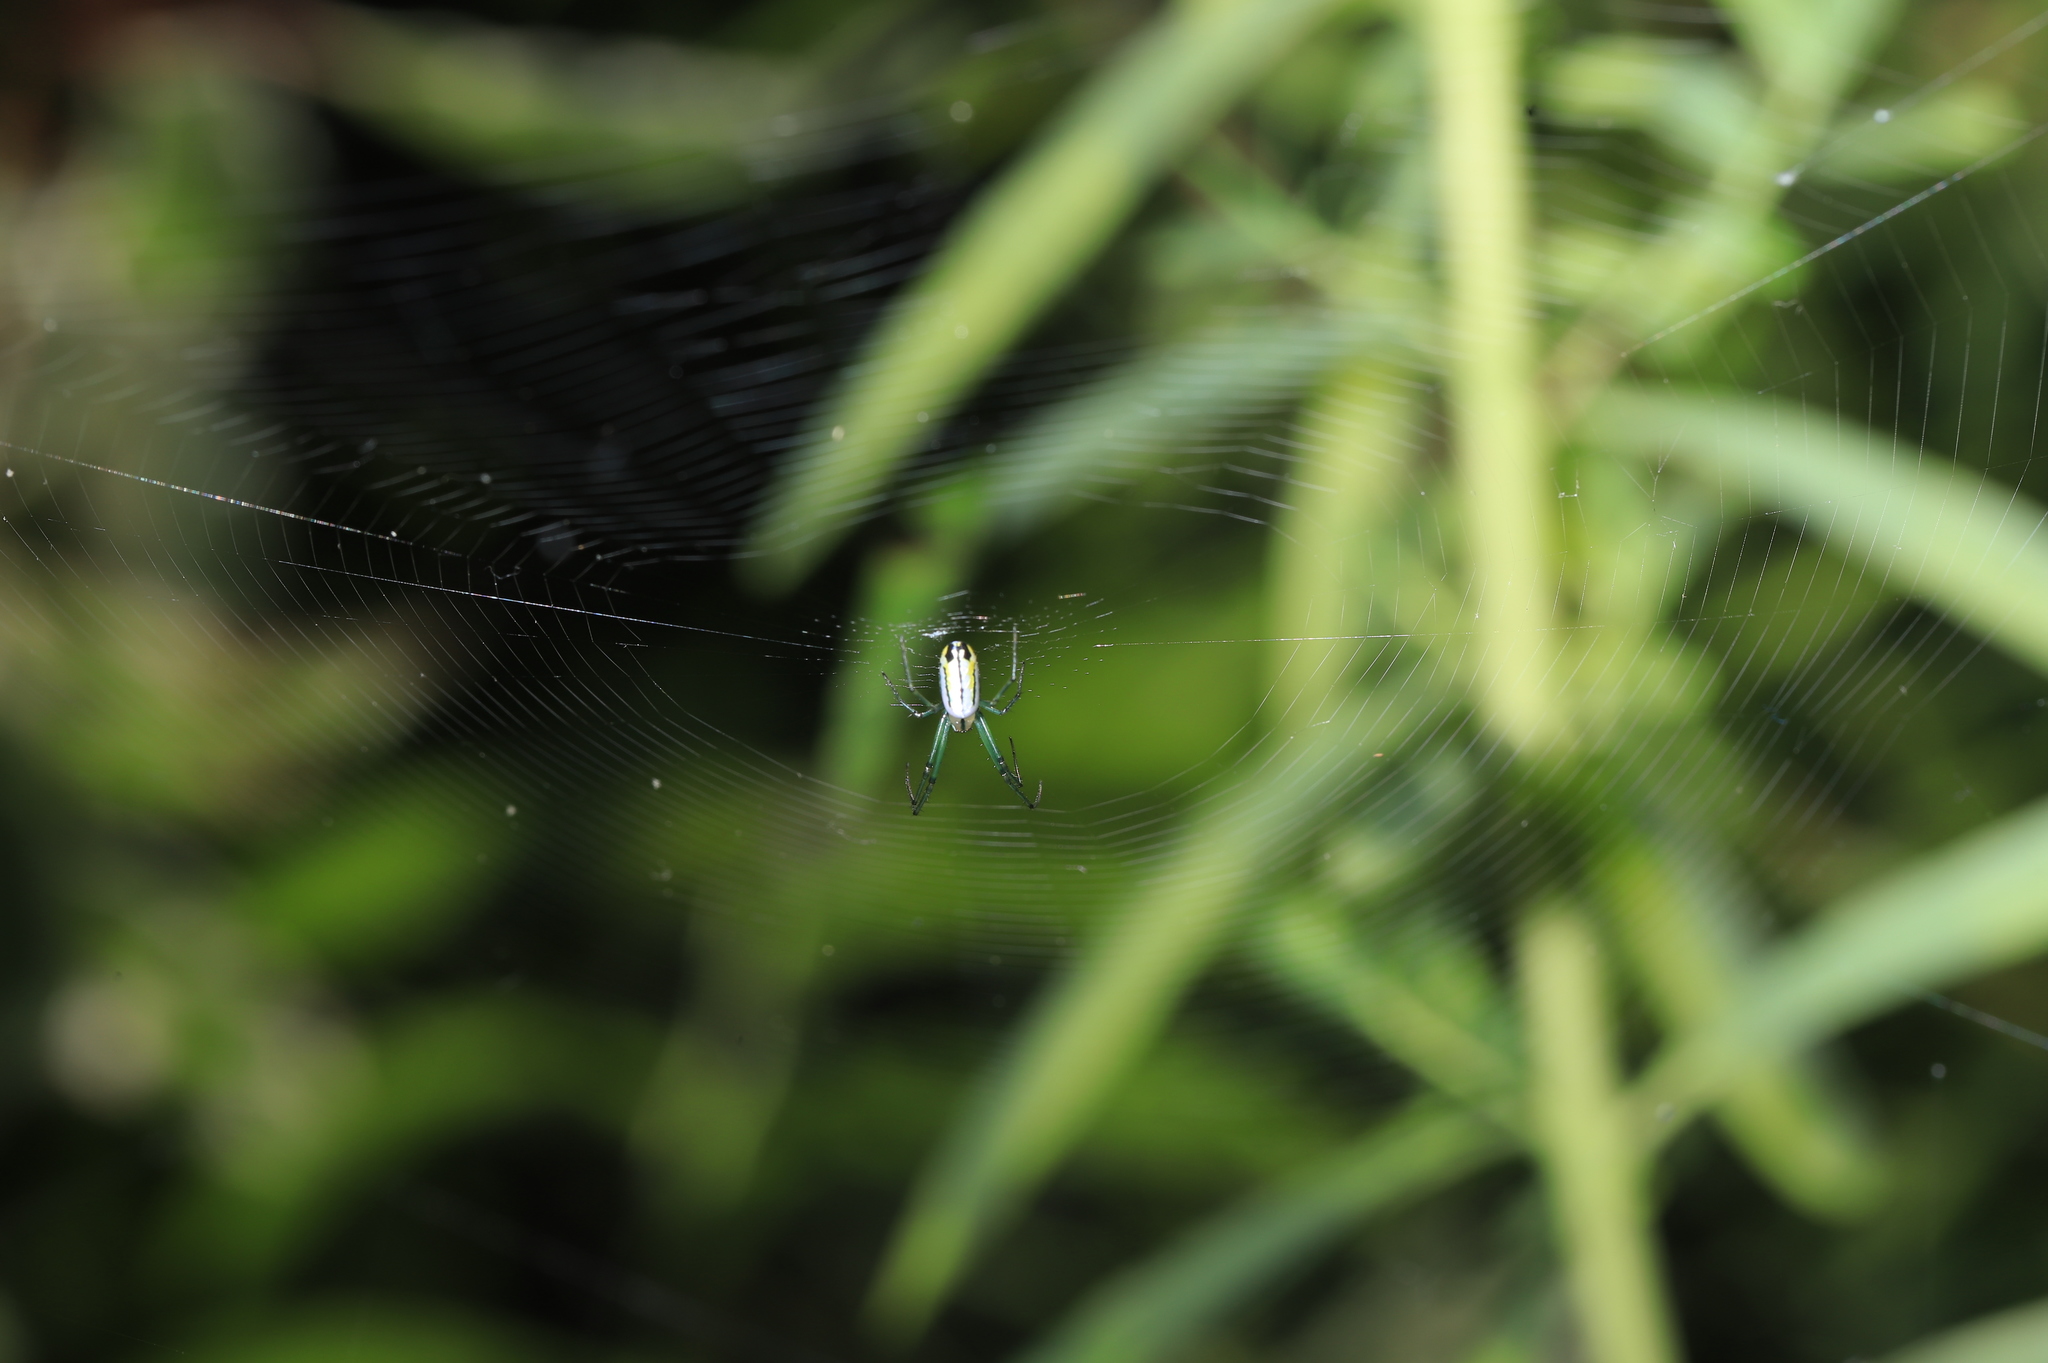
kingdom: Animalia
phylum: Arthropoda
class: Arachnida
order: Araneae
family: Tetragnathidae
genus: Leucauge
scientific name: Leucauge venusta
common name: Longjawed orb weavers
